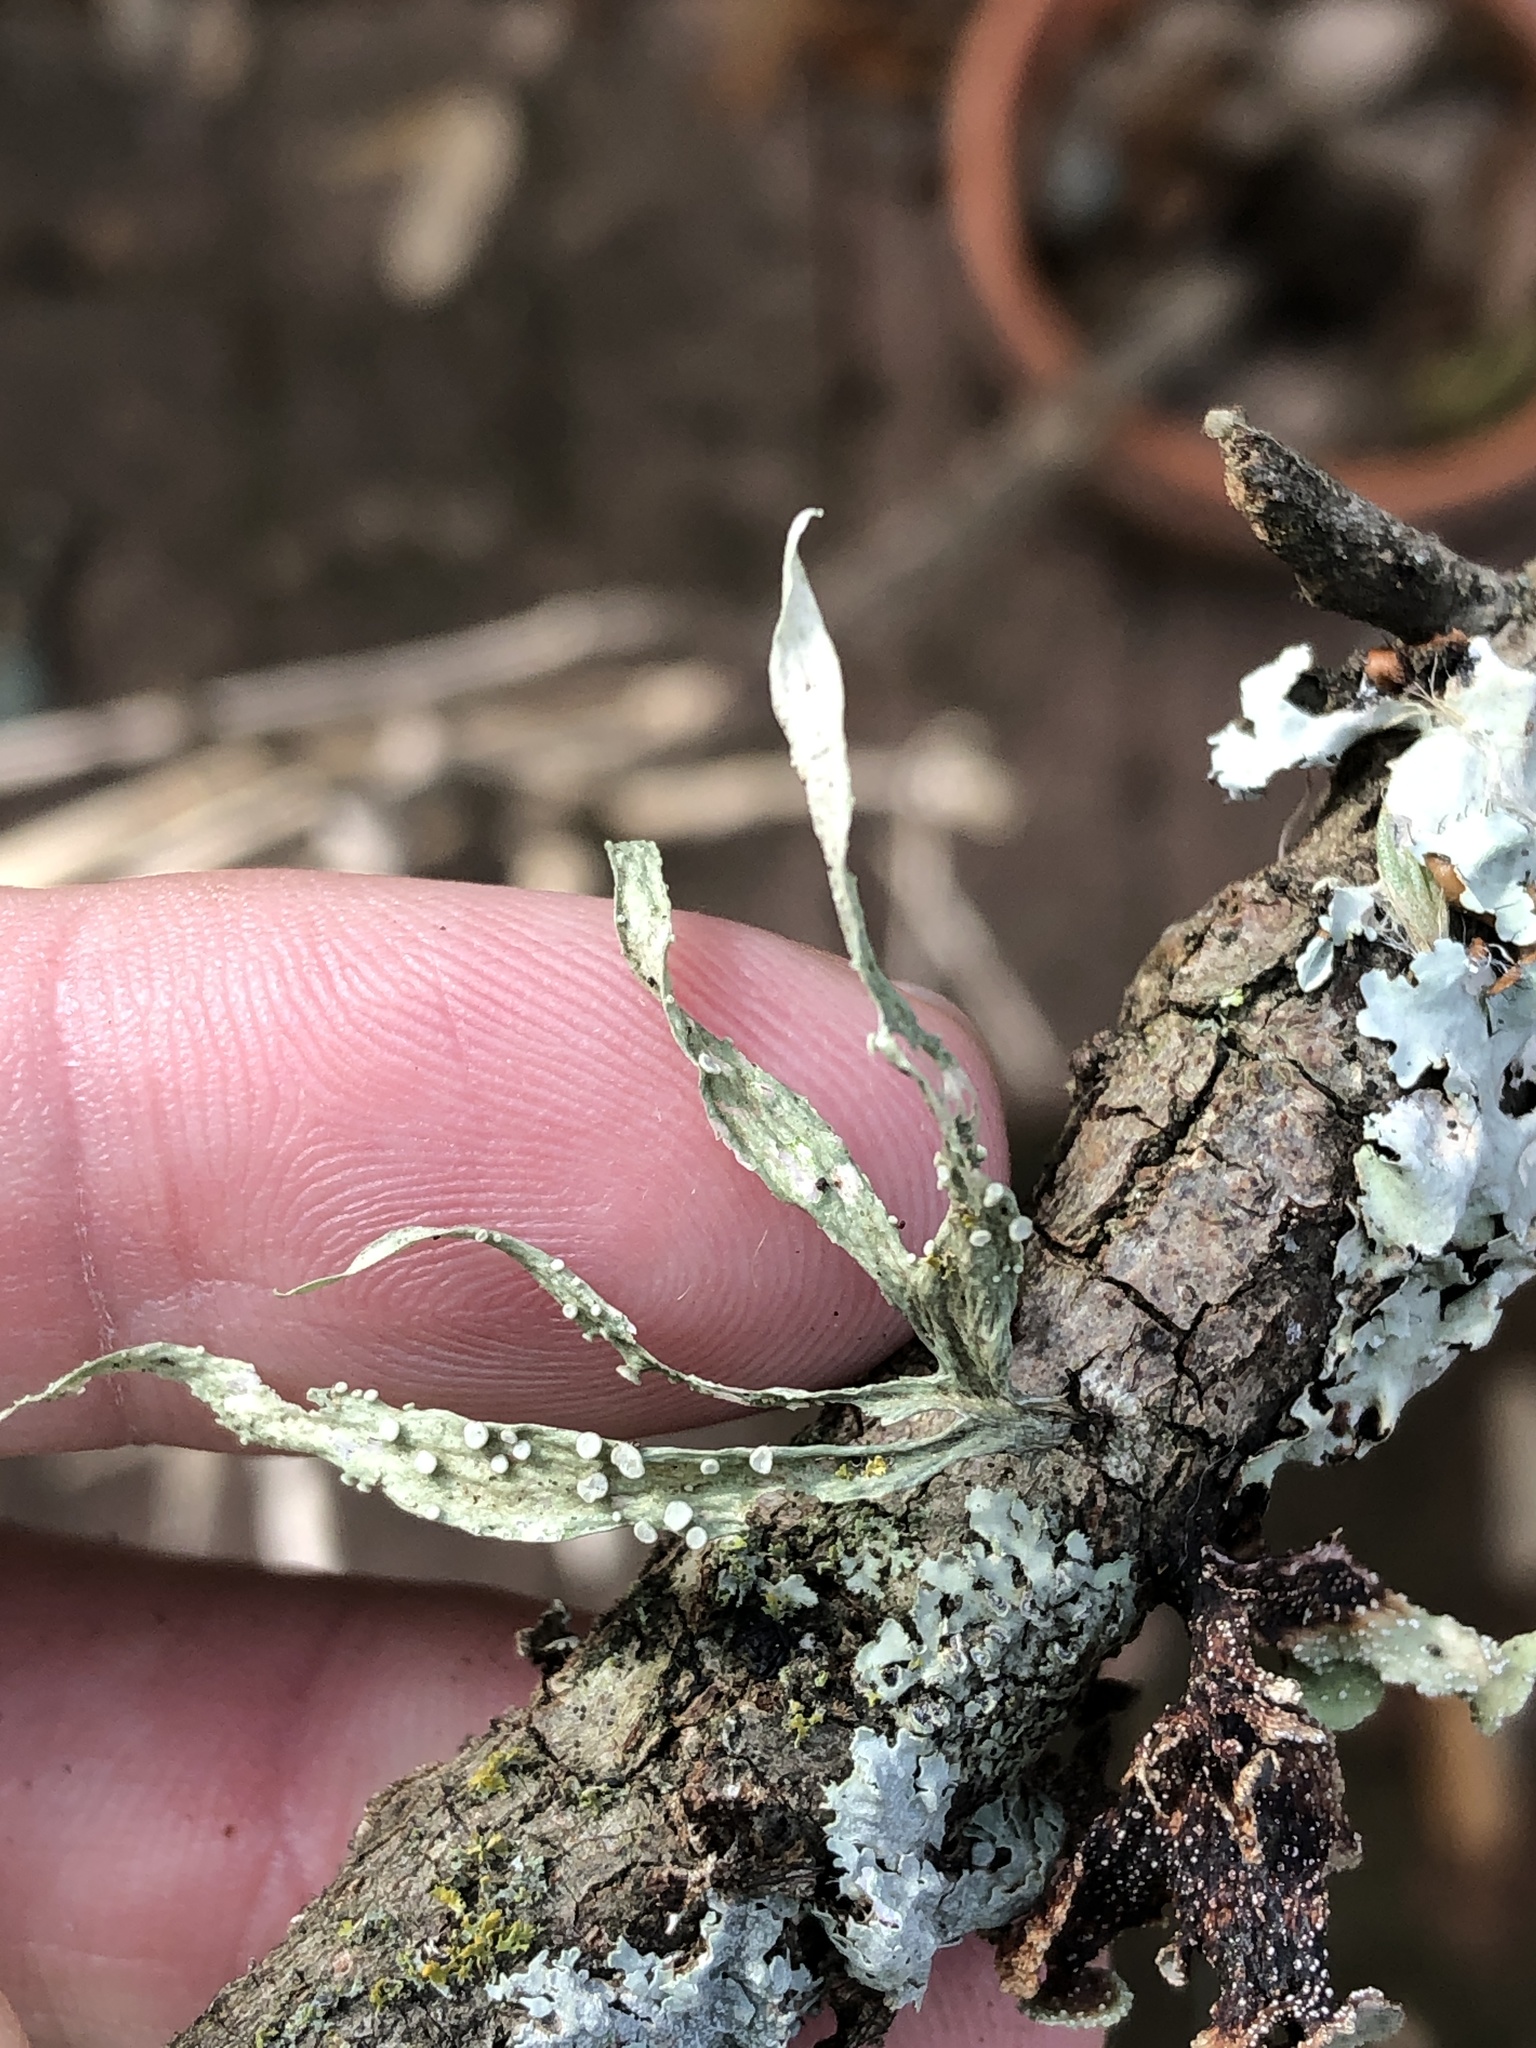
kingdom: Fungi
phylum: Ascomycota
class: Lecanoromycetes
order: Lecanorales
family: Ramalinaceae
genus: Ramalina
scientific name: Ramalina celastri
